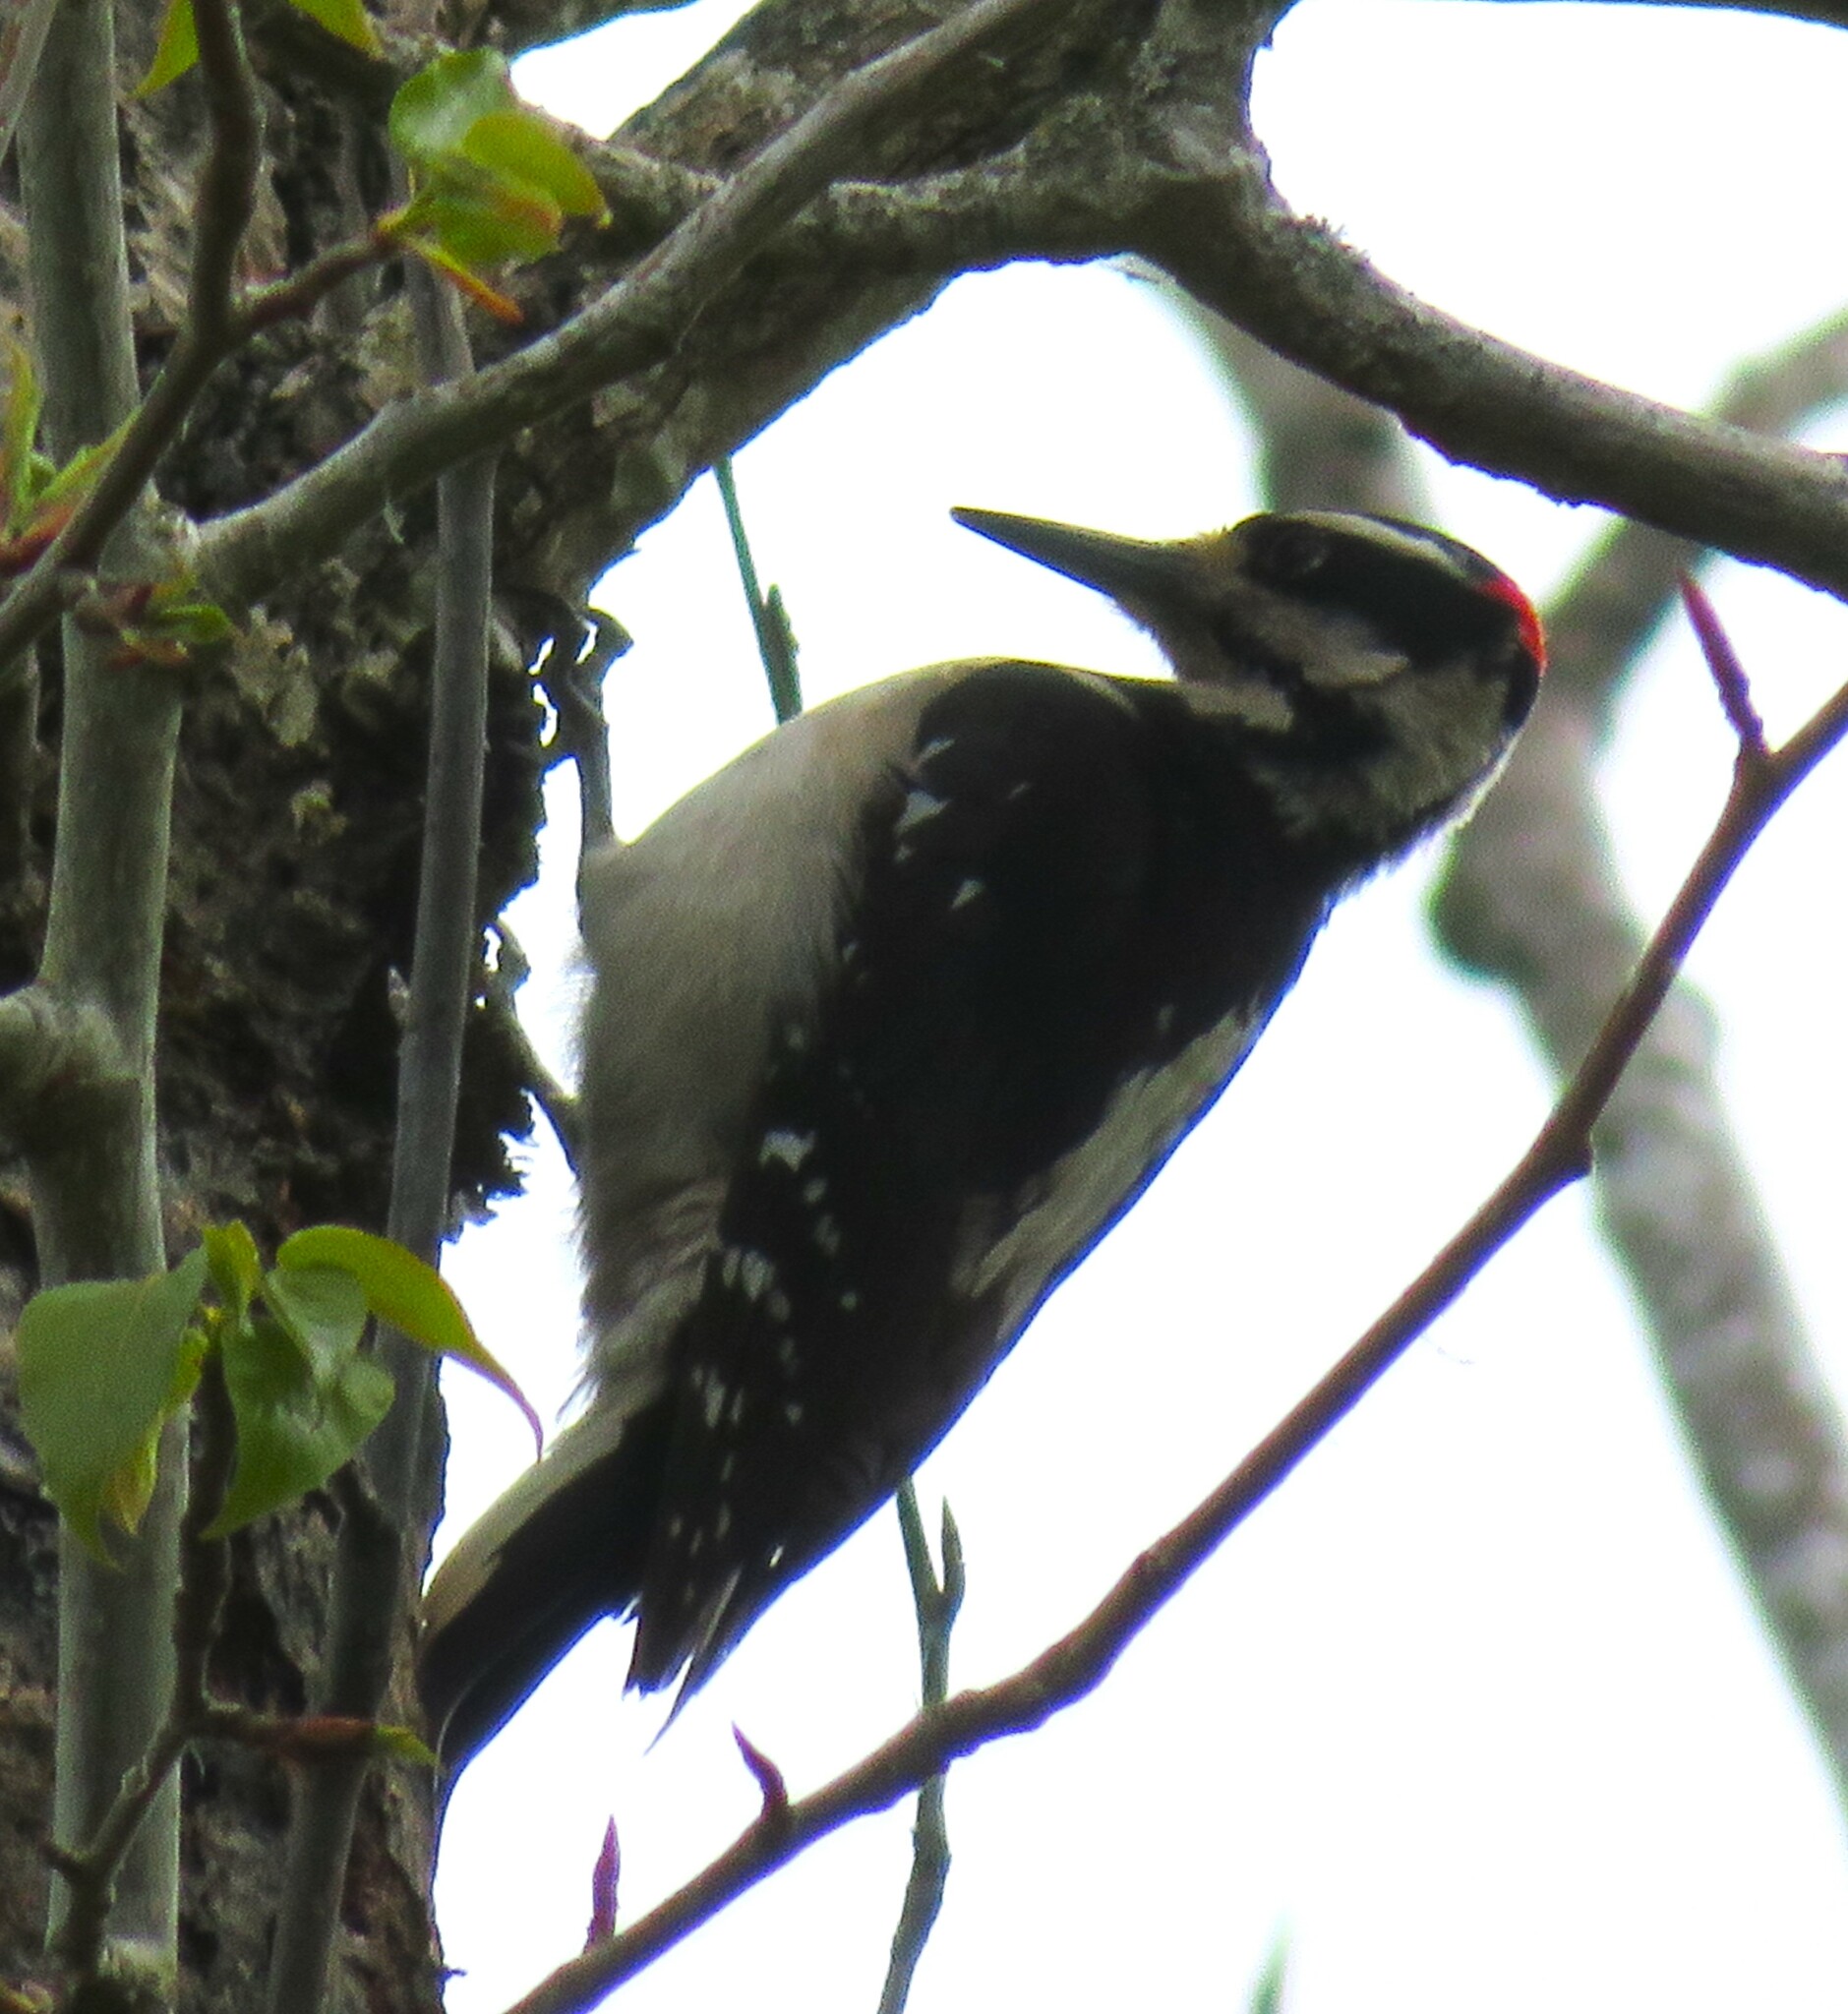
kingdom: Animalia
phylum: Chordata
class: Aves
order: Piciformes
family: Picidae
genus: Leuconotopicus
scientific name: Leuconotopicus villosus
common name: Hairy woodpecker
